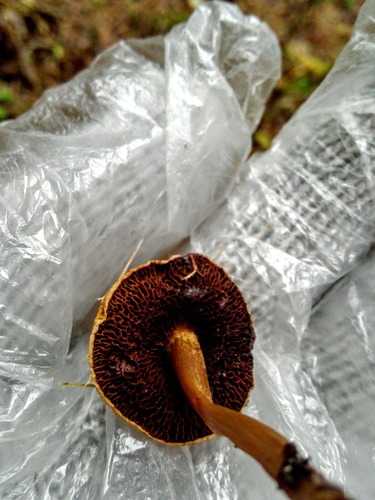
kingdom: Fungi
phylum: Basidiomycota
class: Agaricomycetes
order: Boletales
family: Boletaceae
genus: Chalciporus
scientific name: Chalciporus piperatus
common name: Peppery bolete
